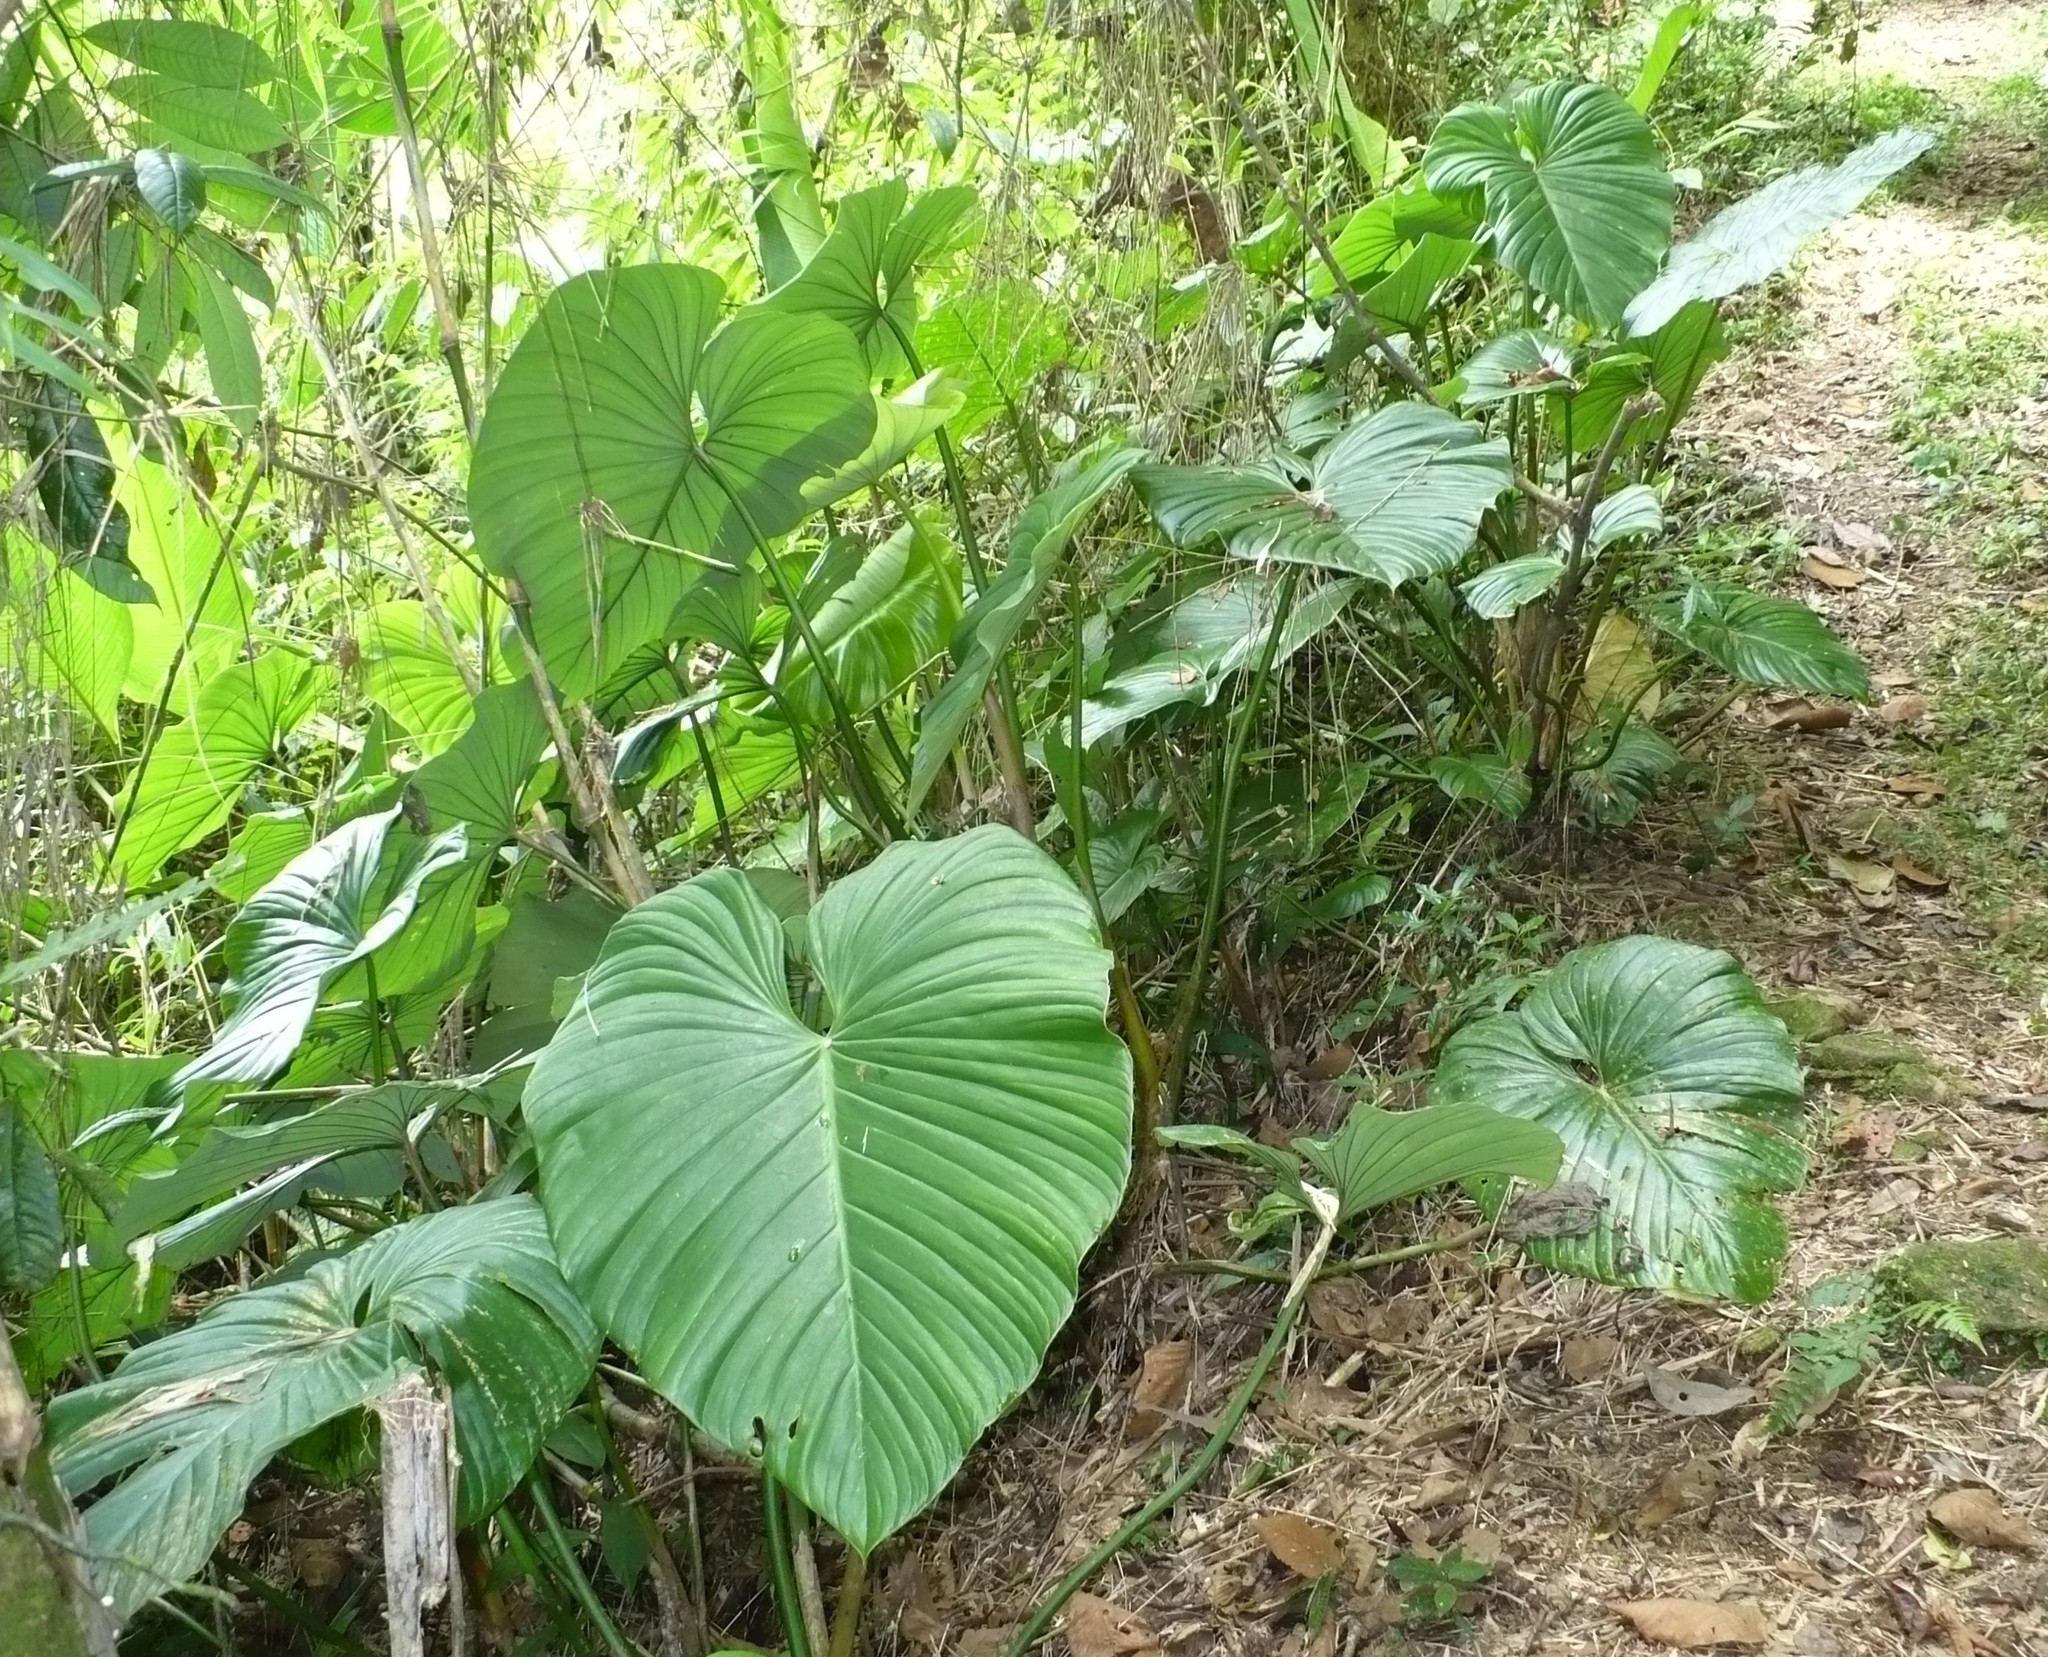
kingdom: Plantae
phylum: Tracheophyta
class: Liliopsida
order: Alismatales
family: Araceae
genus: Philodendron
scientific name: Philodendron grandipes
